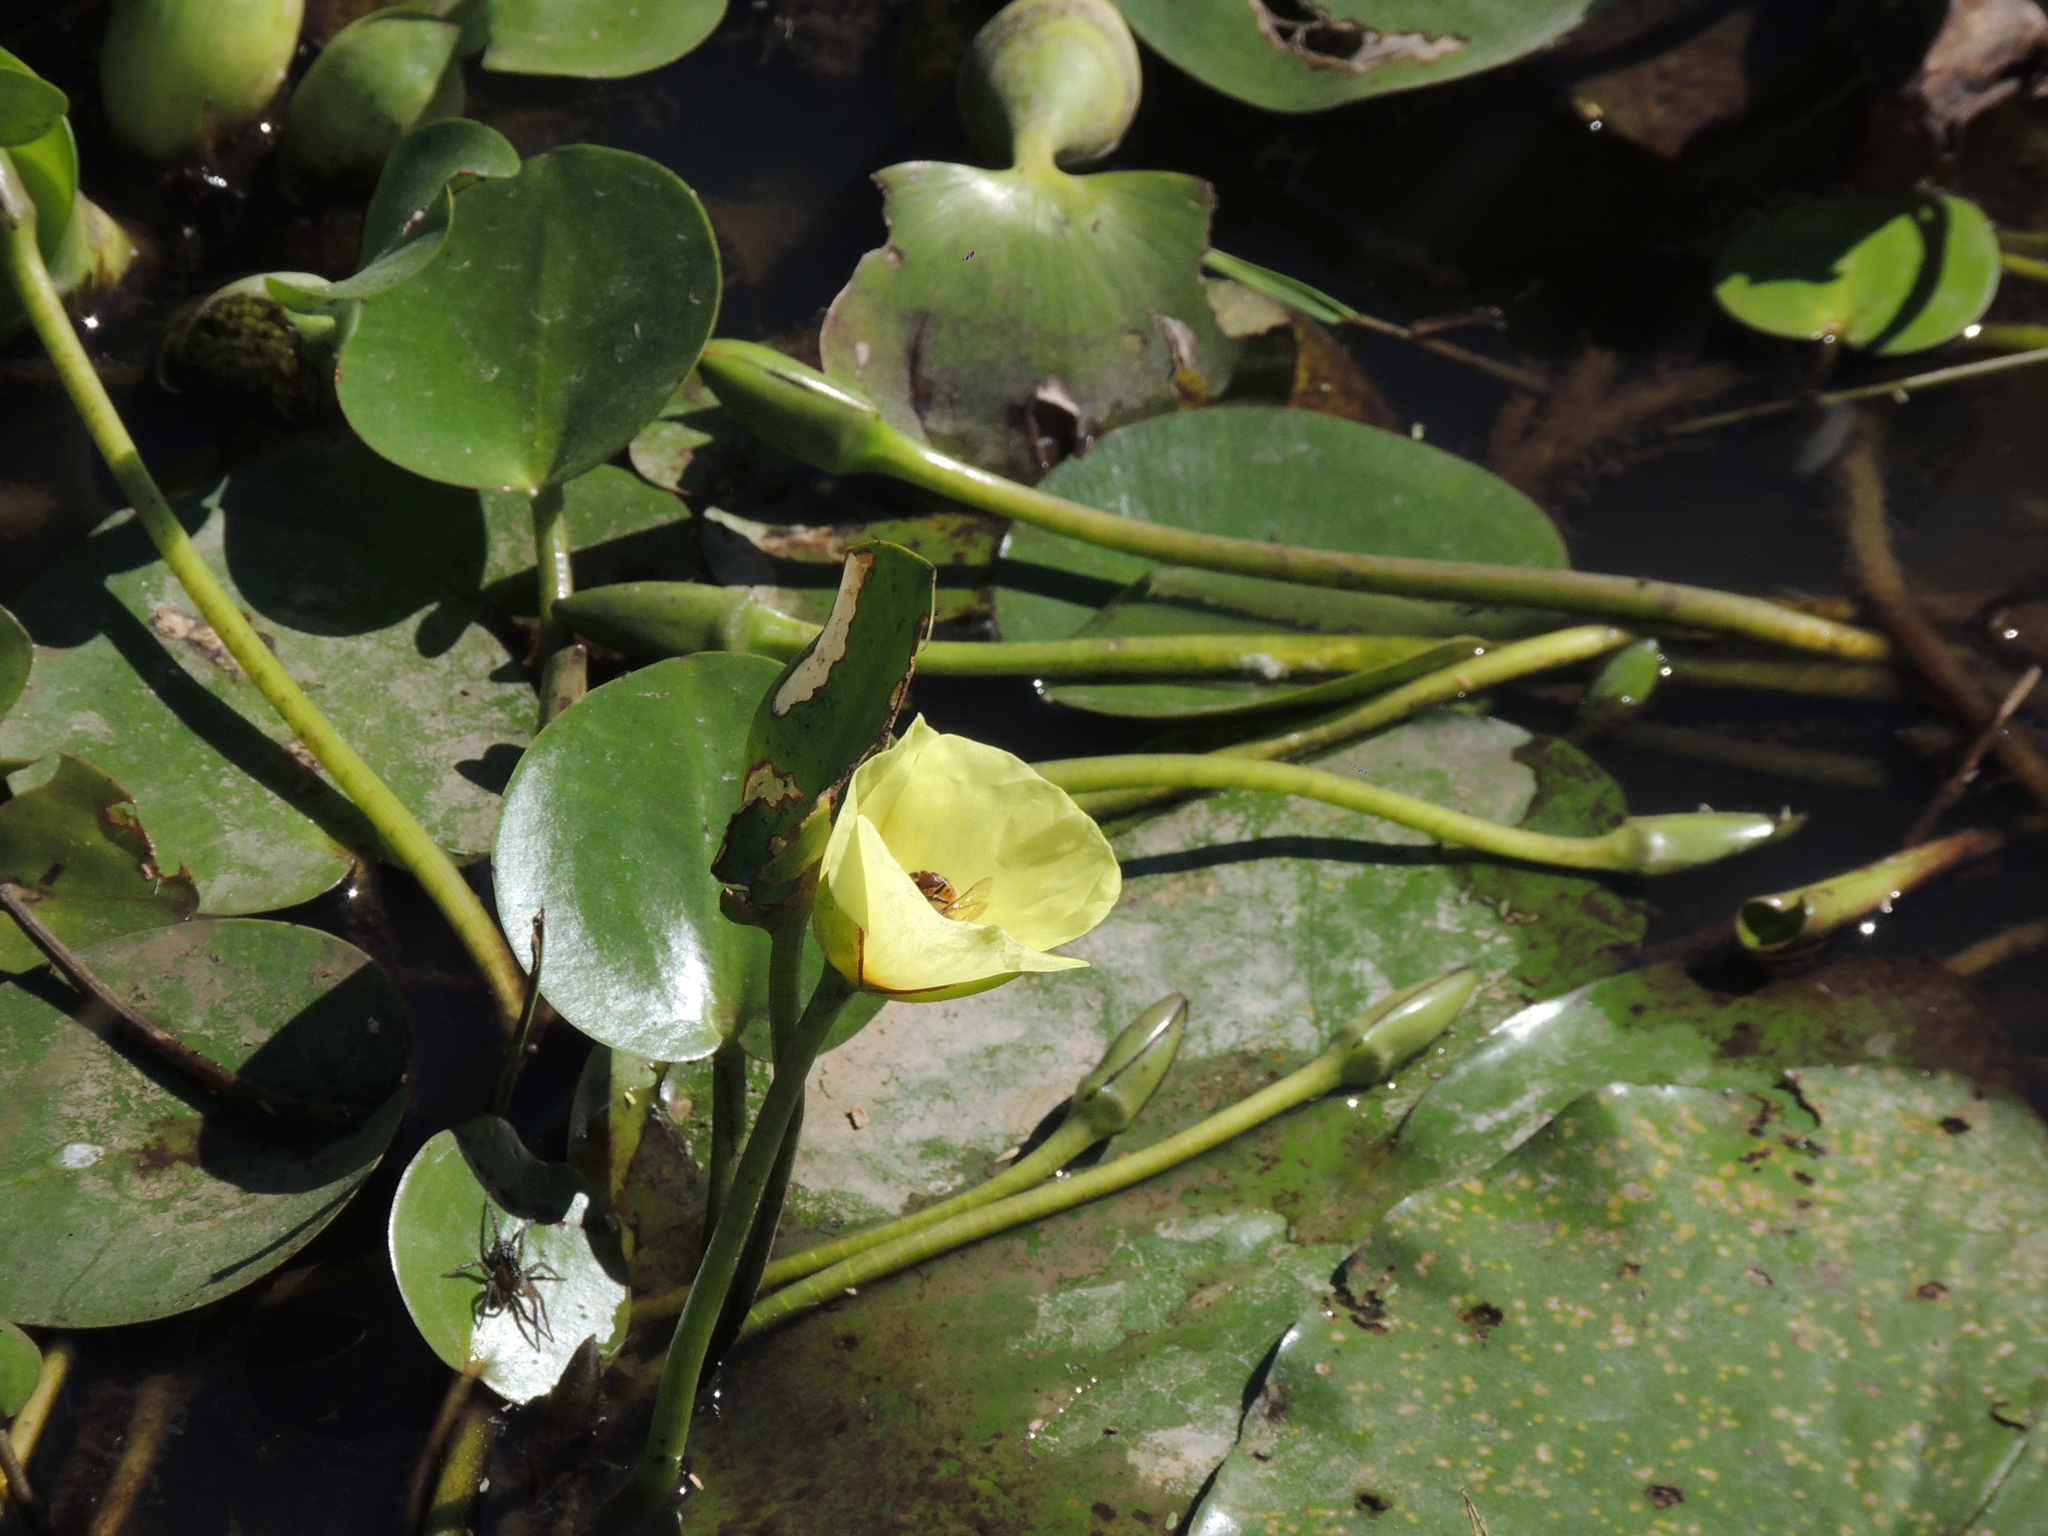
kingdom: Plantae
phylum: Tracheophyta
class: Liliopsida
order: Alismatales
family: Alismataceae
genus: Hydrocleys
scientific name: Hydrocleys nymphoides
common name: Water-poppy
